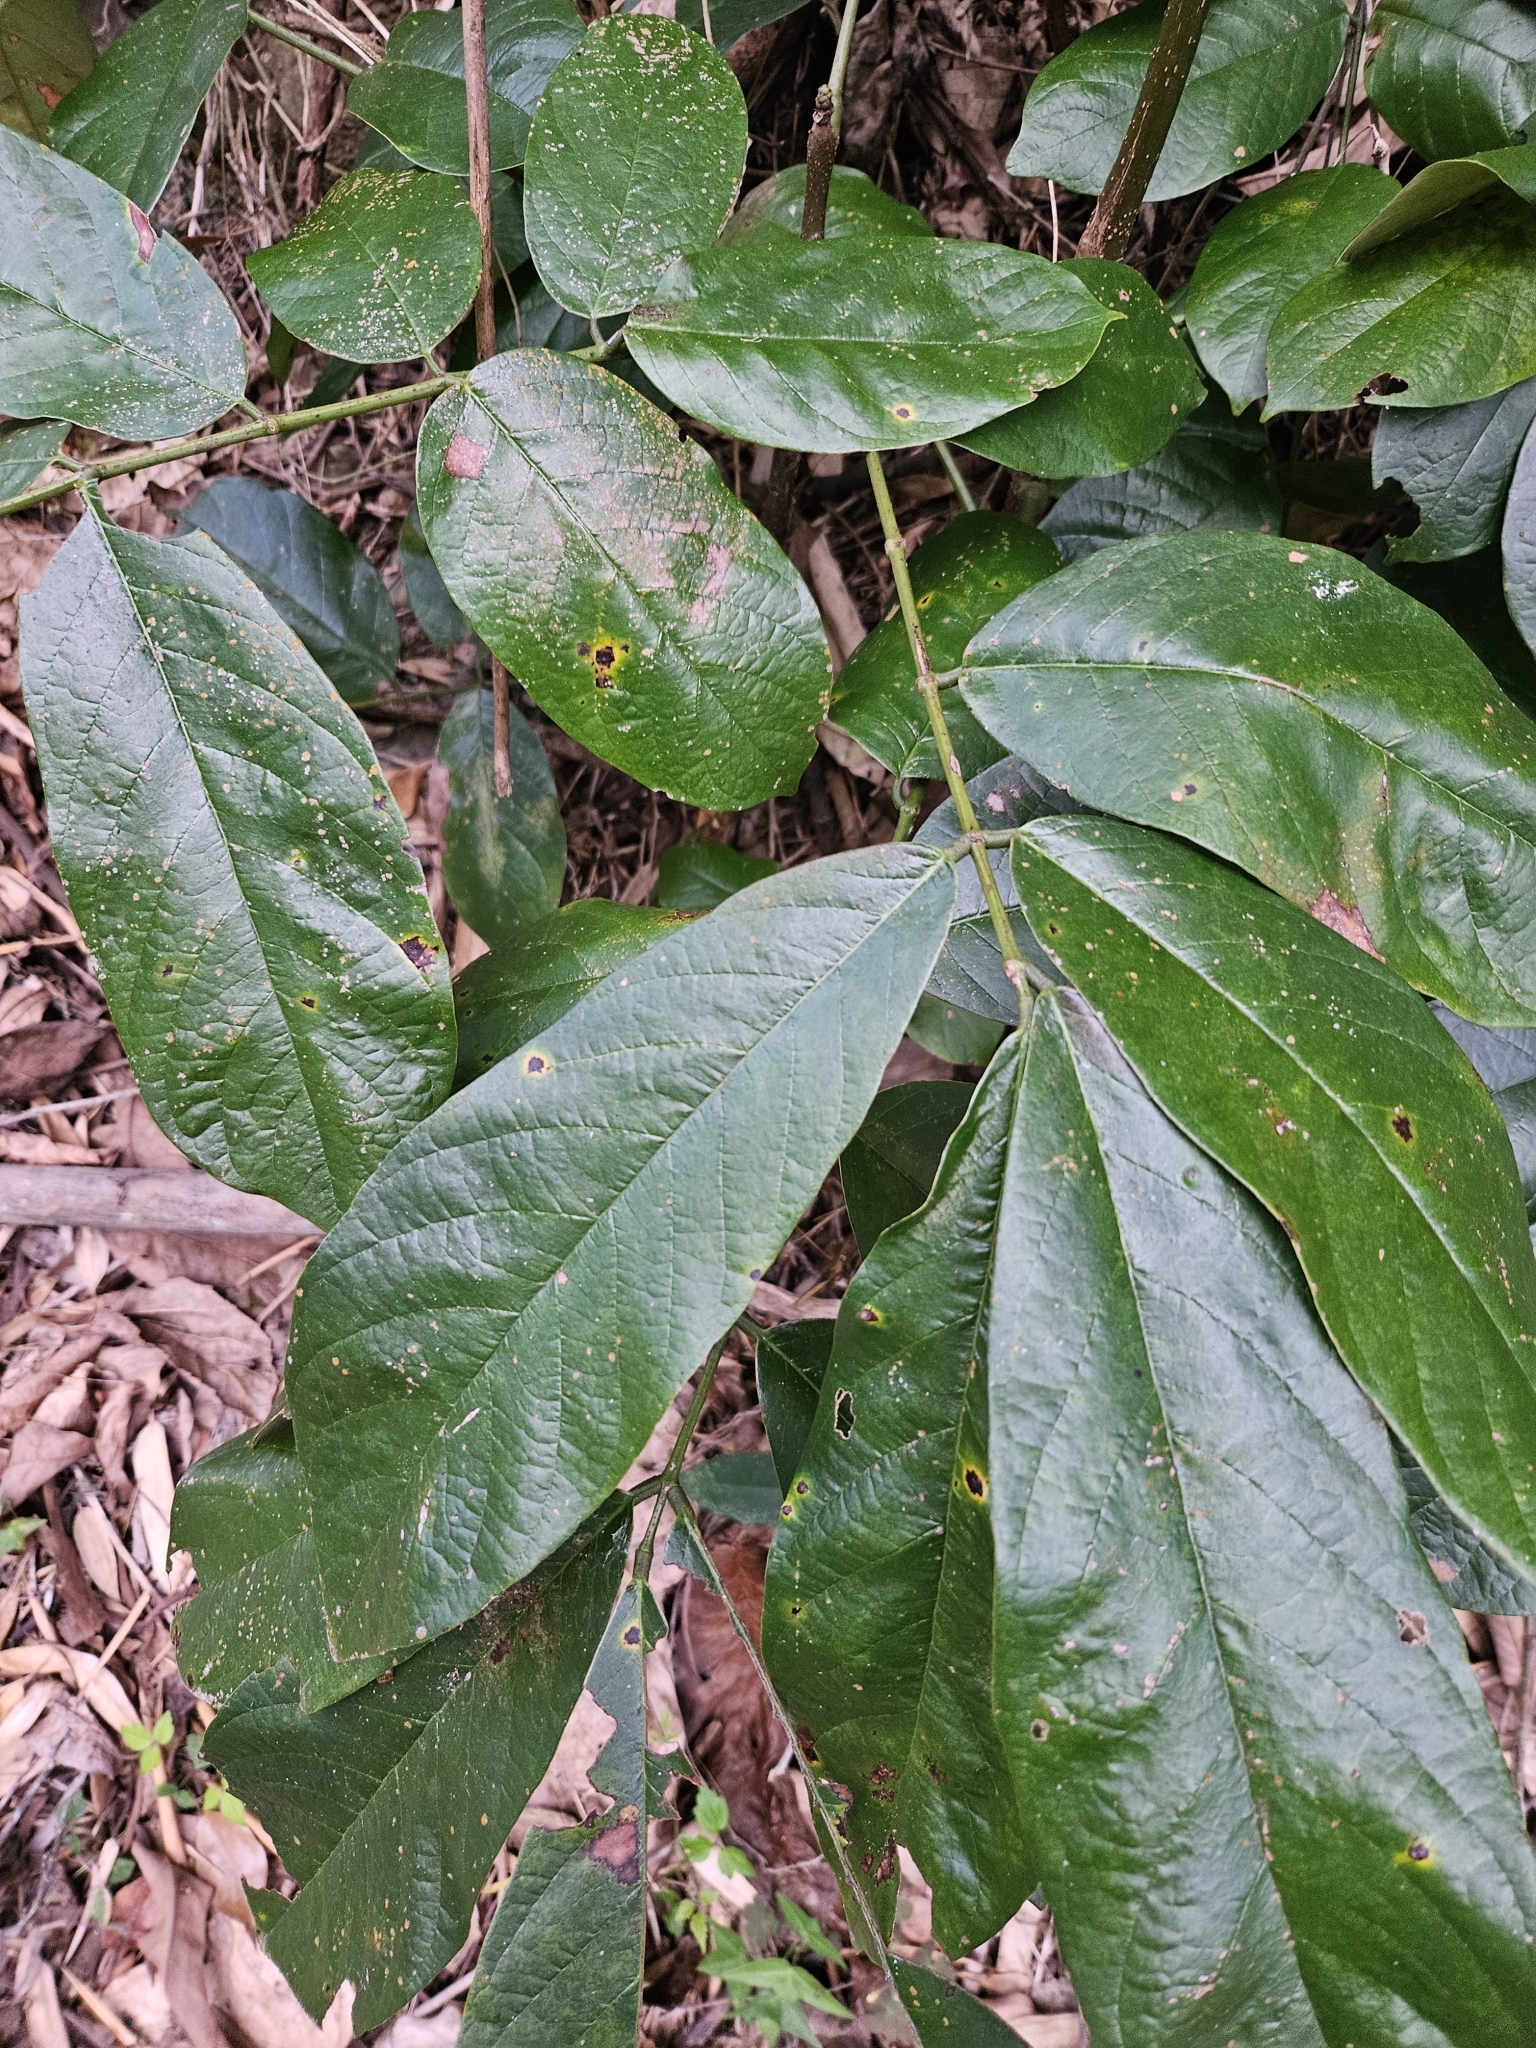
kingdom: Plantae
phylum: Tracheophyta
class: Magnoliopsida
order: Fabales
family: Fabaceae
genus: Millettia
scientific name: Millettia pachycarpa
